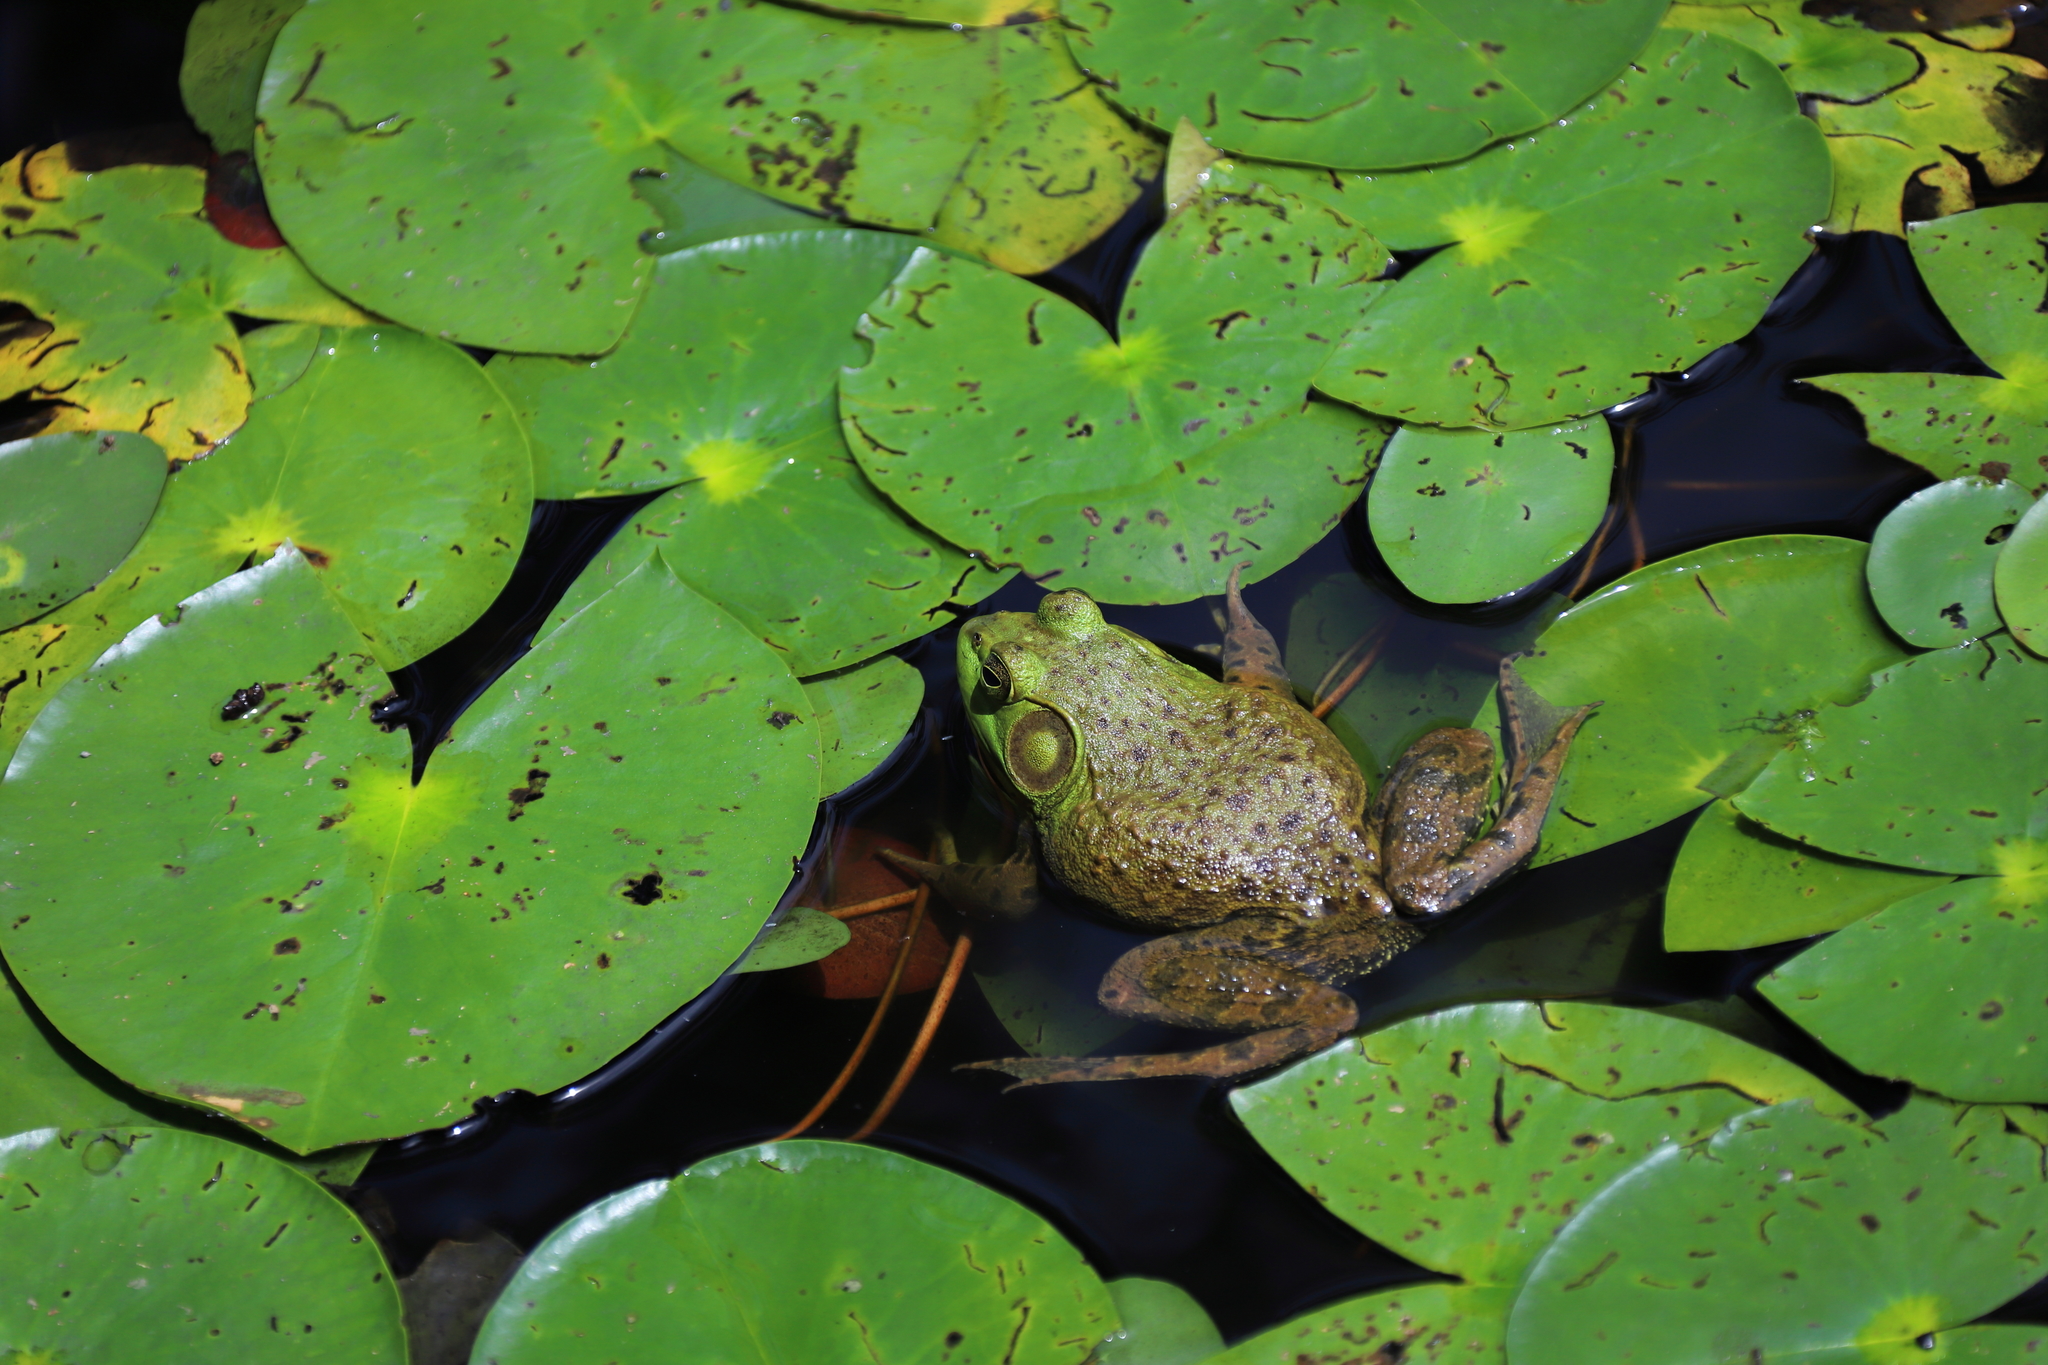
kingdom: Animalia
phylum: Chordata
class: Amphibia
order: Anura
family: Ranidae
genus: Lithobates
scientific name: Lithobates catesbeianus
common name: American bullfrog
